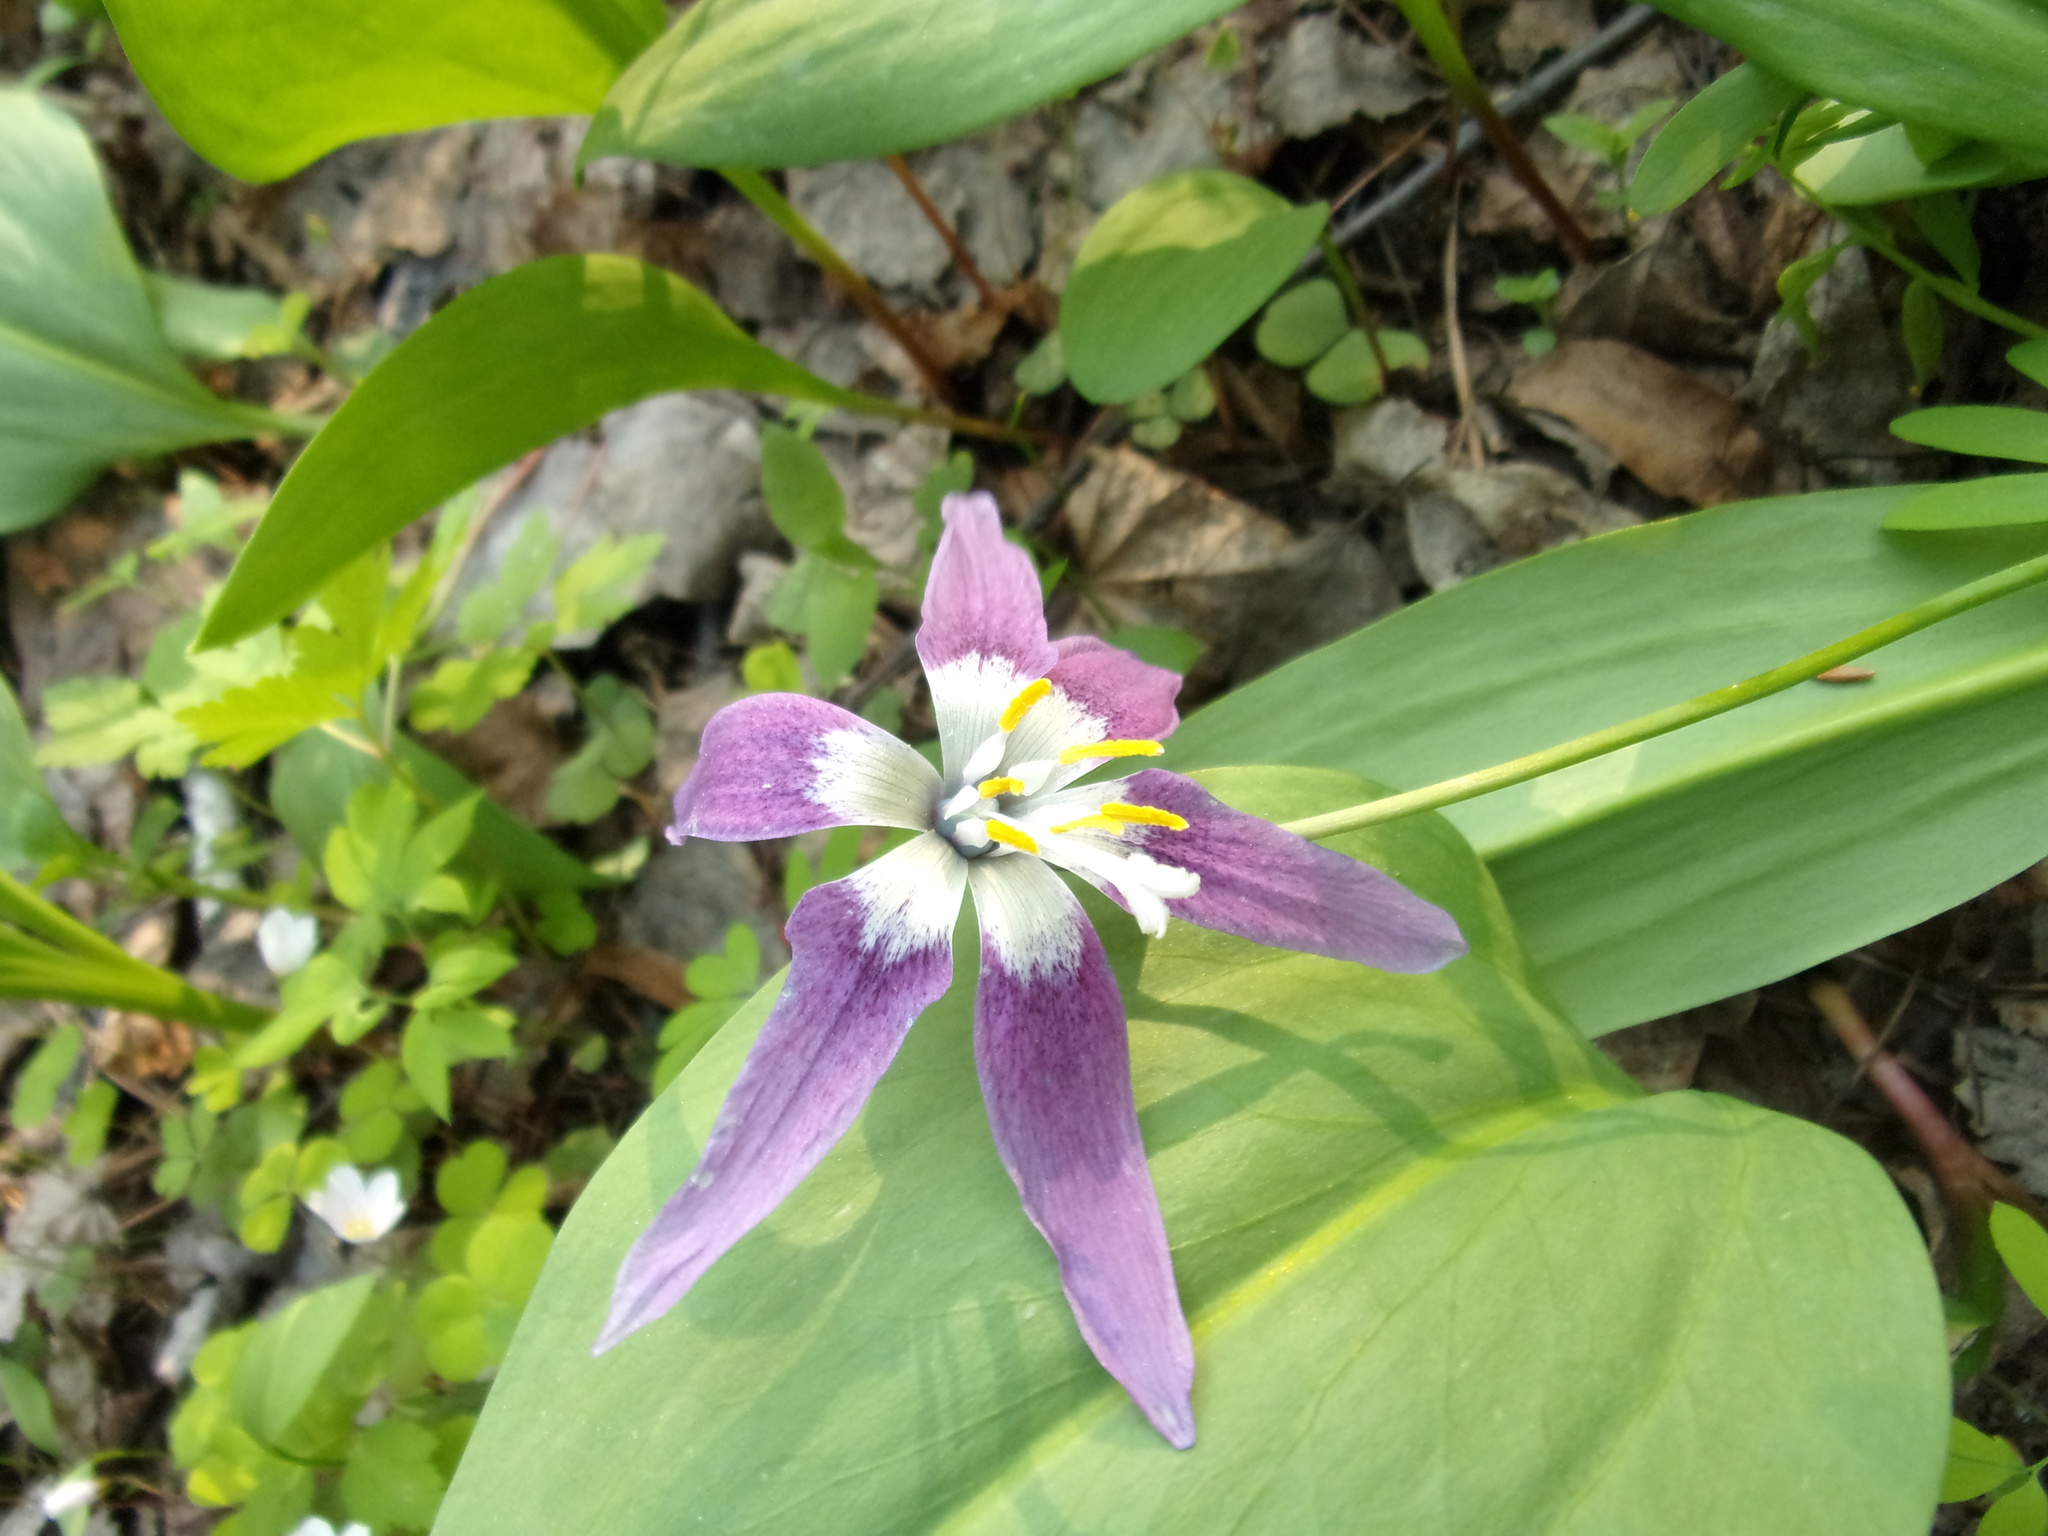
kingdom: Plantae
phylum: Tracheophyta
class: Liliopsida
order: Liliales
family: Liliaceae
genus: Erythronium
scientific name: Erythronium sibiricum
